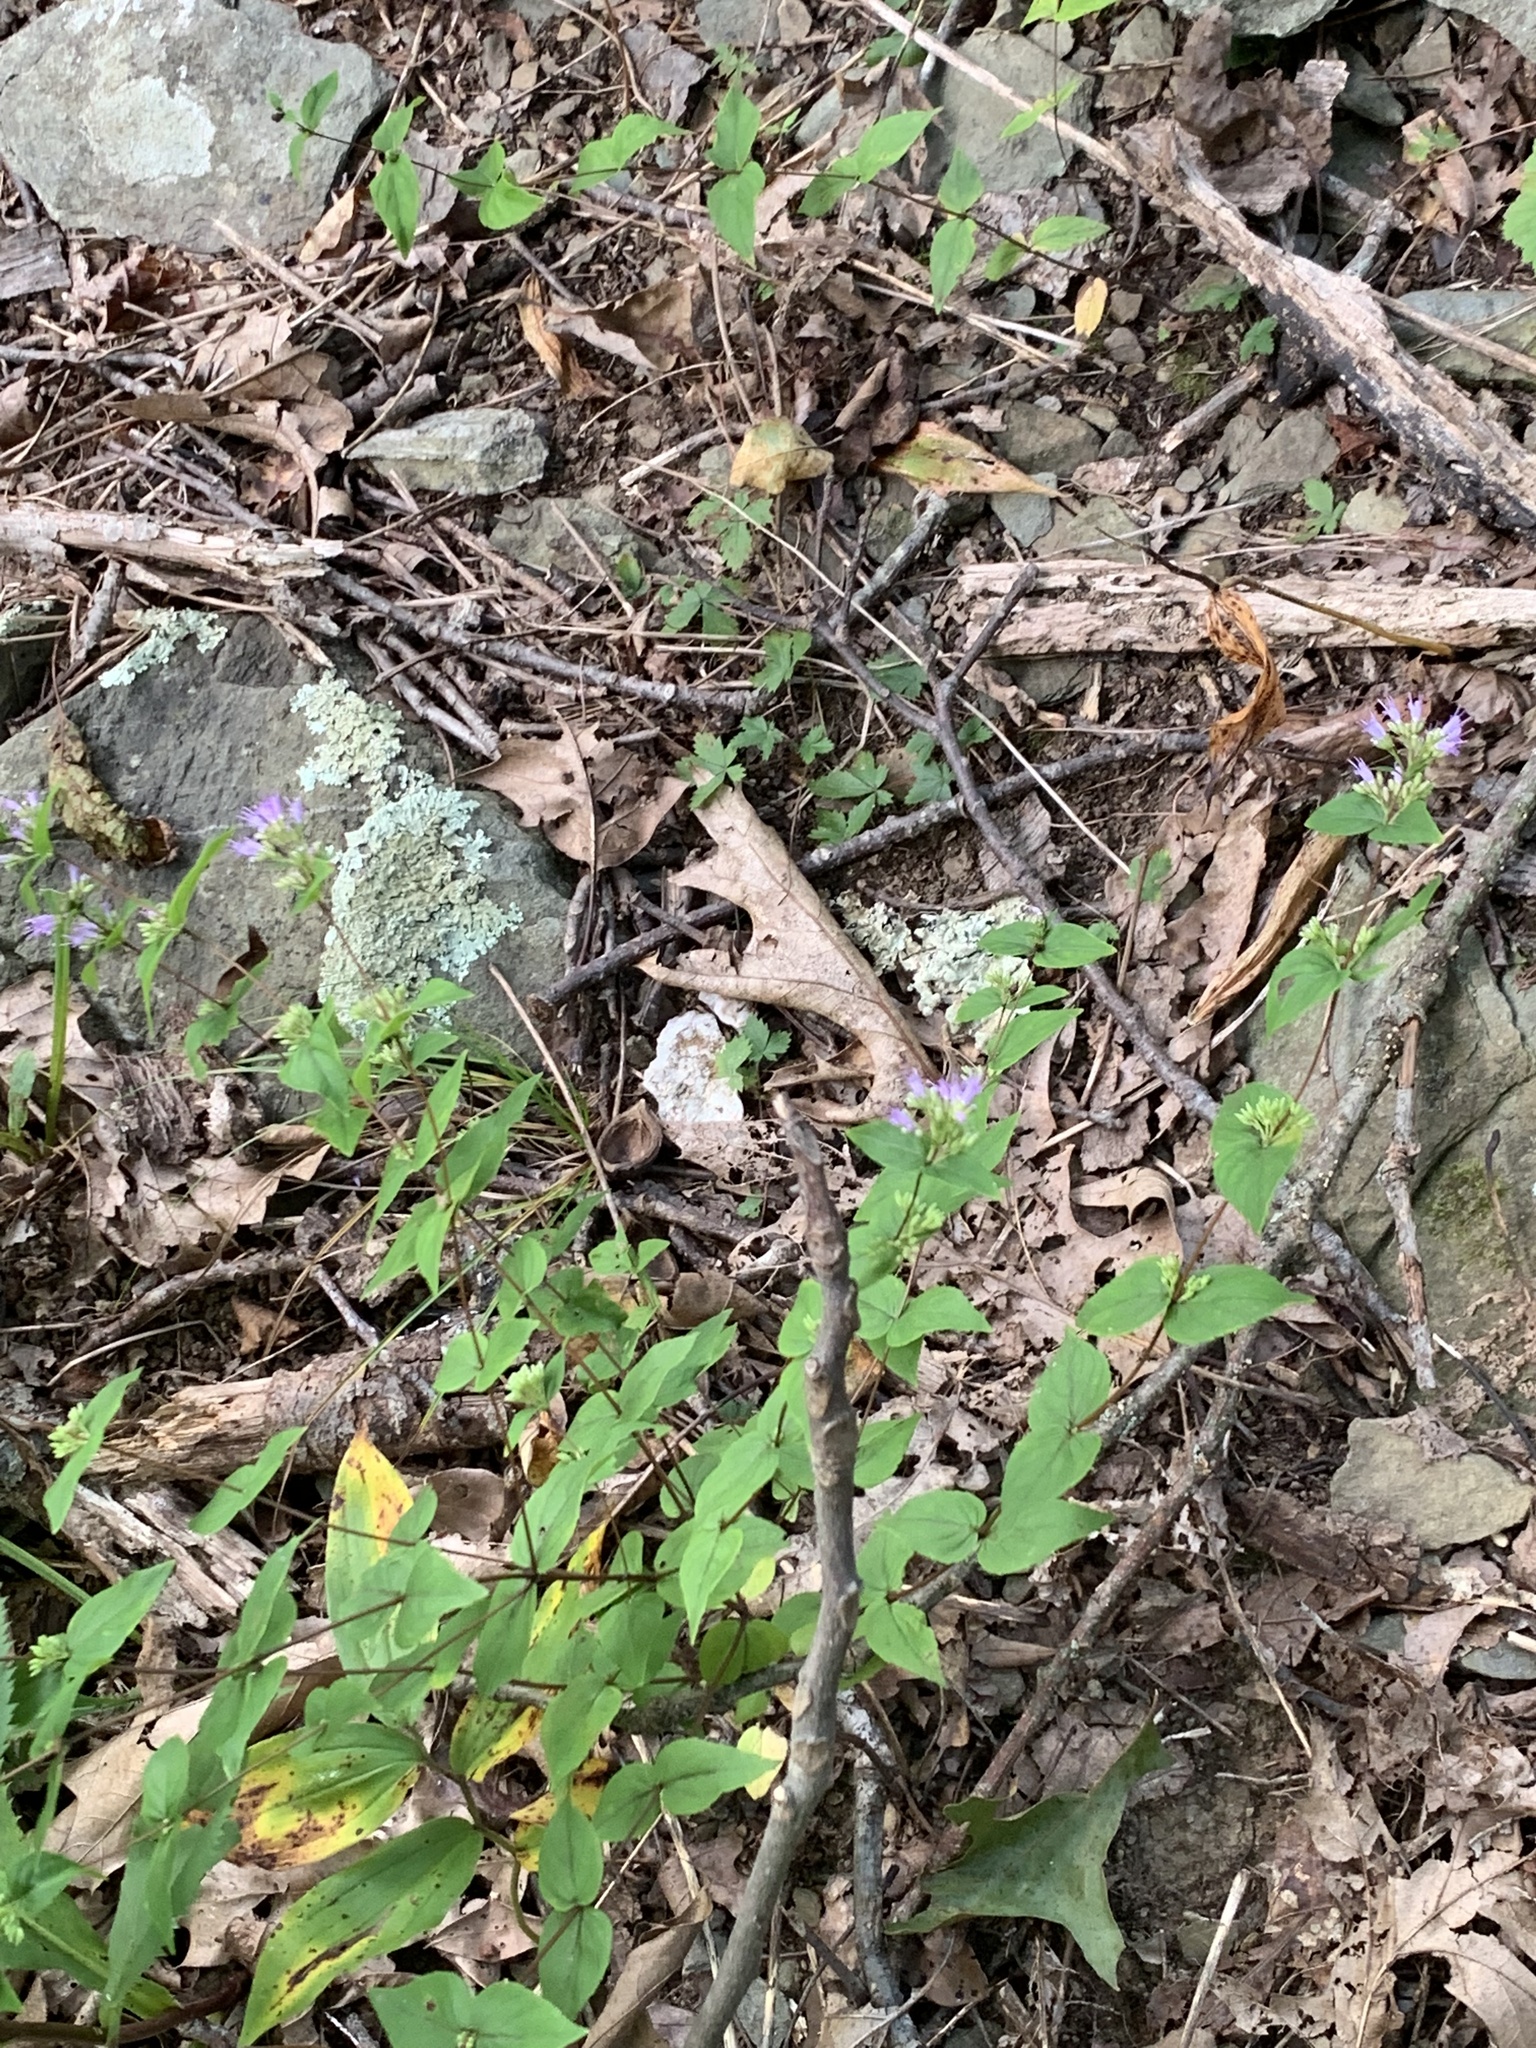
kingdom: Plantae
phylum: Tracheophyta
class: Magnoliopsida
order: Lamiales
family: Lamiaceae
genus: Cunila
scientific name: Cunila origanoides
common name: American dittany
